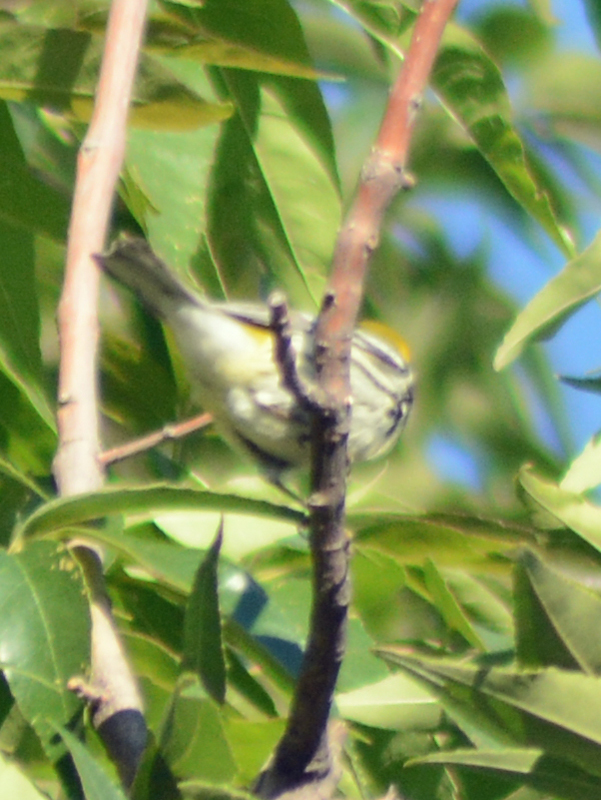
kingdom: Animalia
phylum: Chordata
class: Aves
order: Passeriformes
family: Parulidae
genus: Setophaga
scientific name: Setophaga virens
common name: Black-throated green warbler
